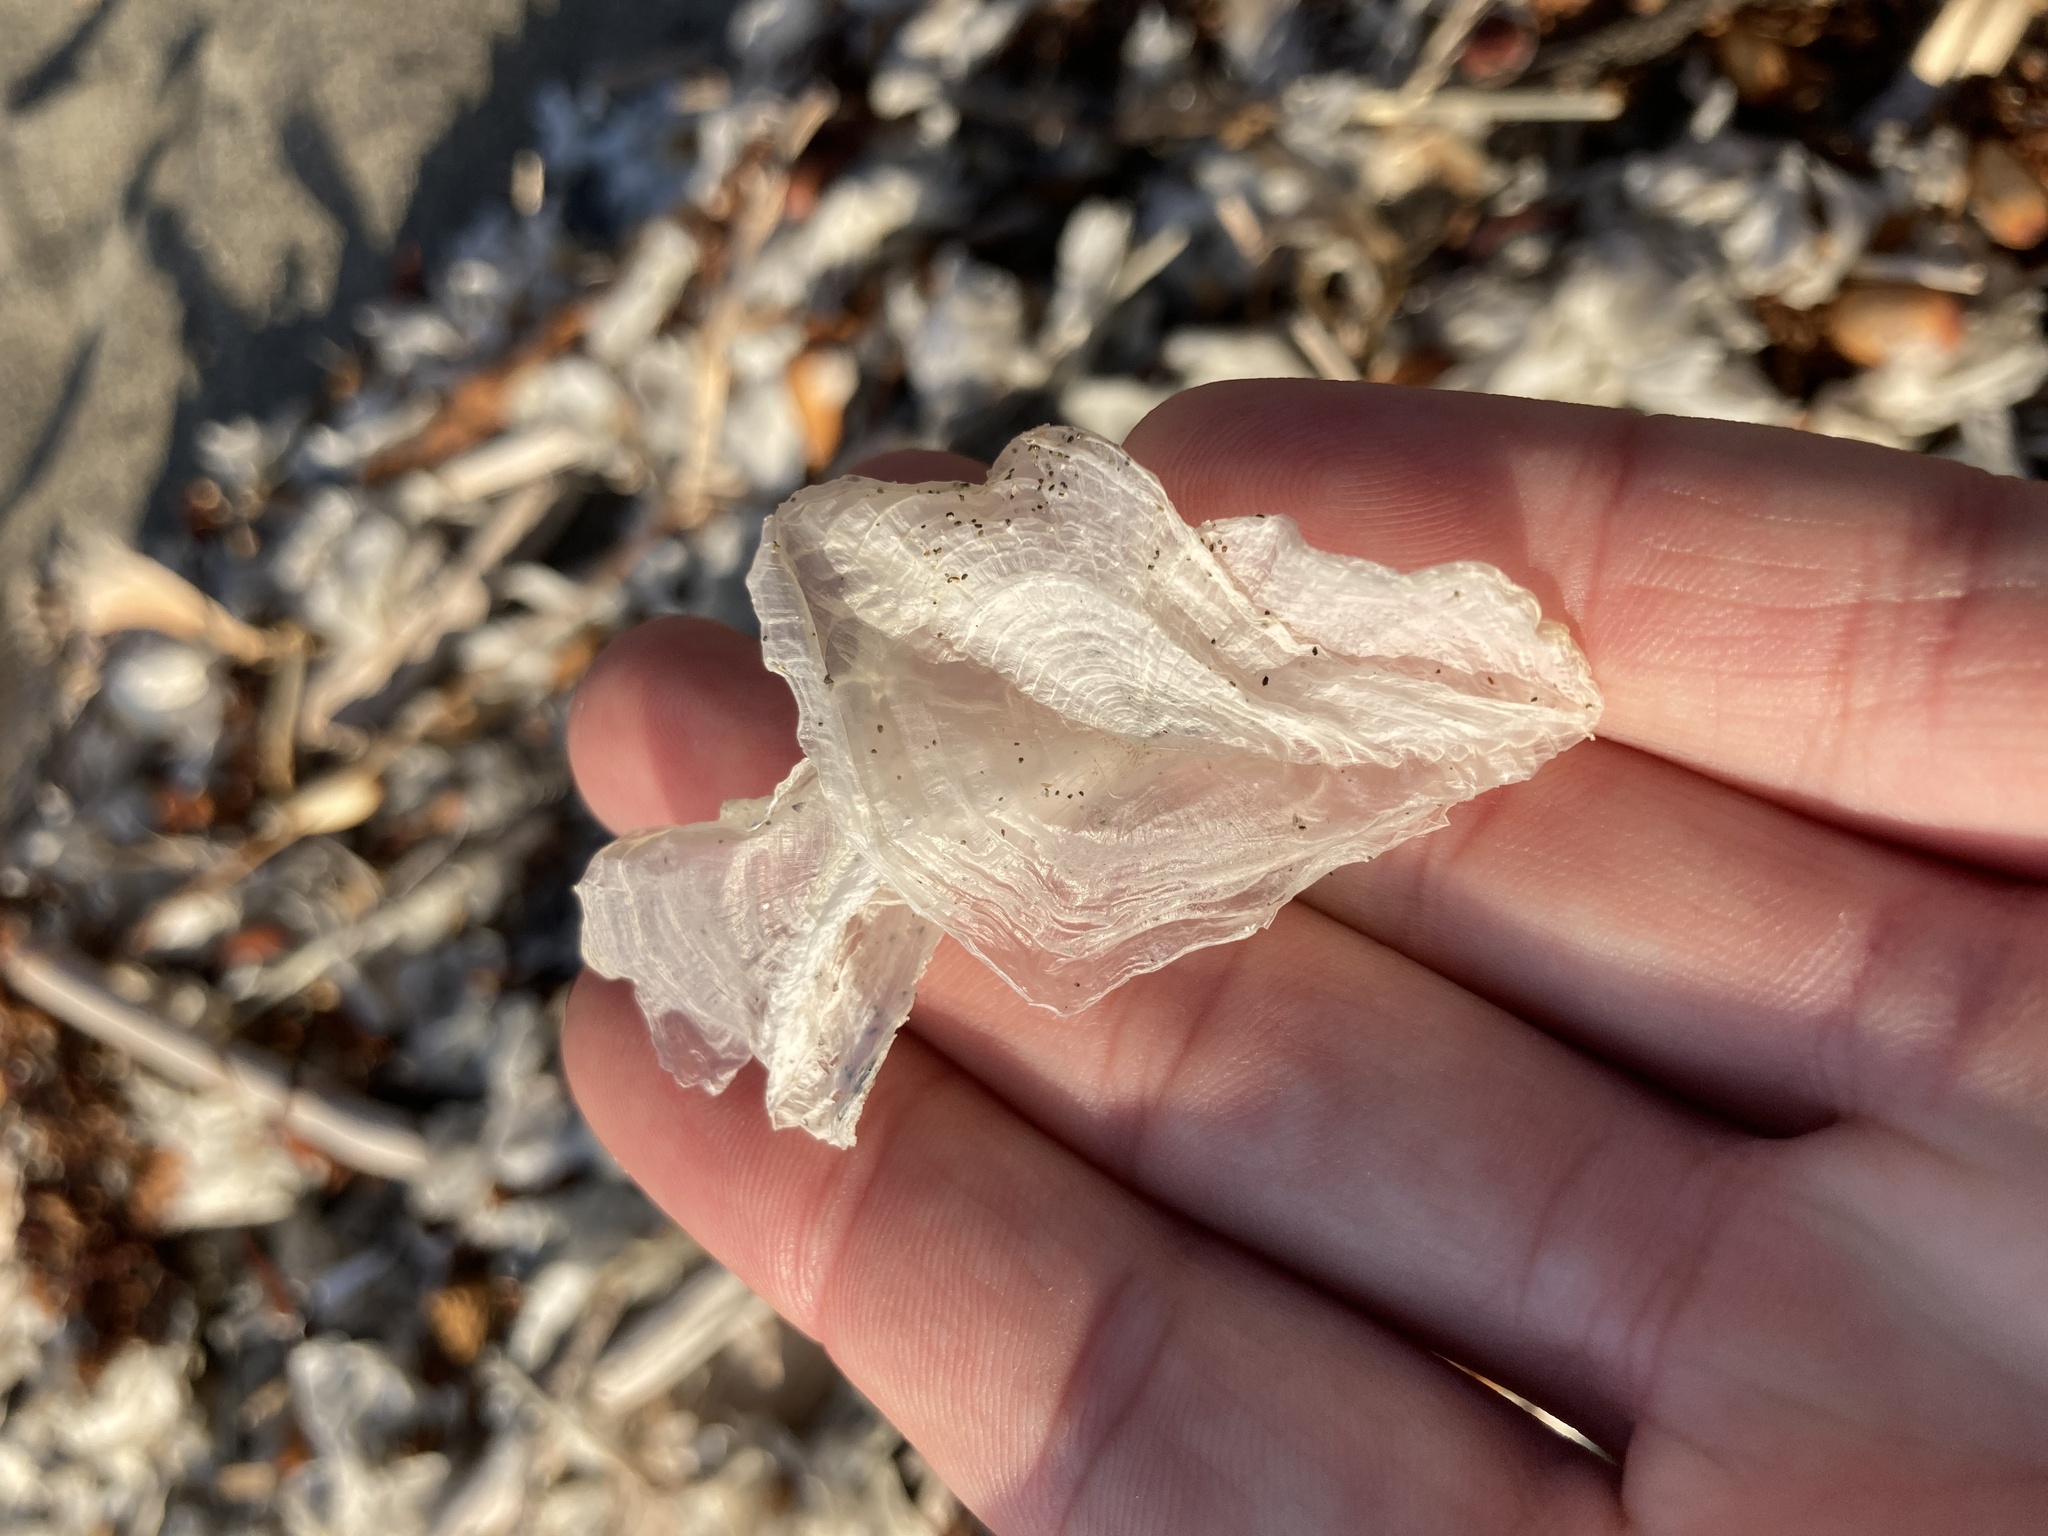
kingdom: Animalia
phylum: Cnidaria
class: Hydrozoa
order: Anthoathecata
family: Porpitidae
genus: Velella
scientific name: Velella velella
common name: By-the-wind-sailor
